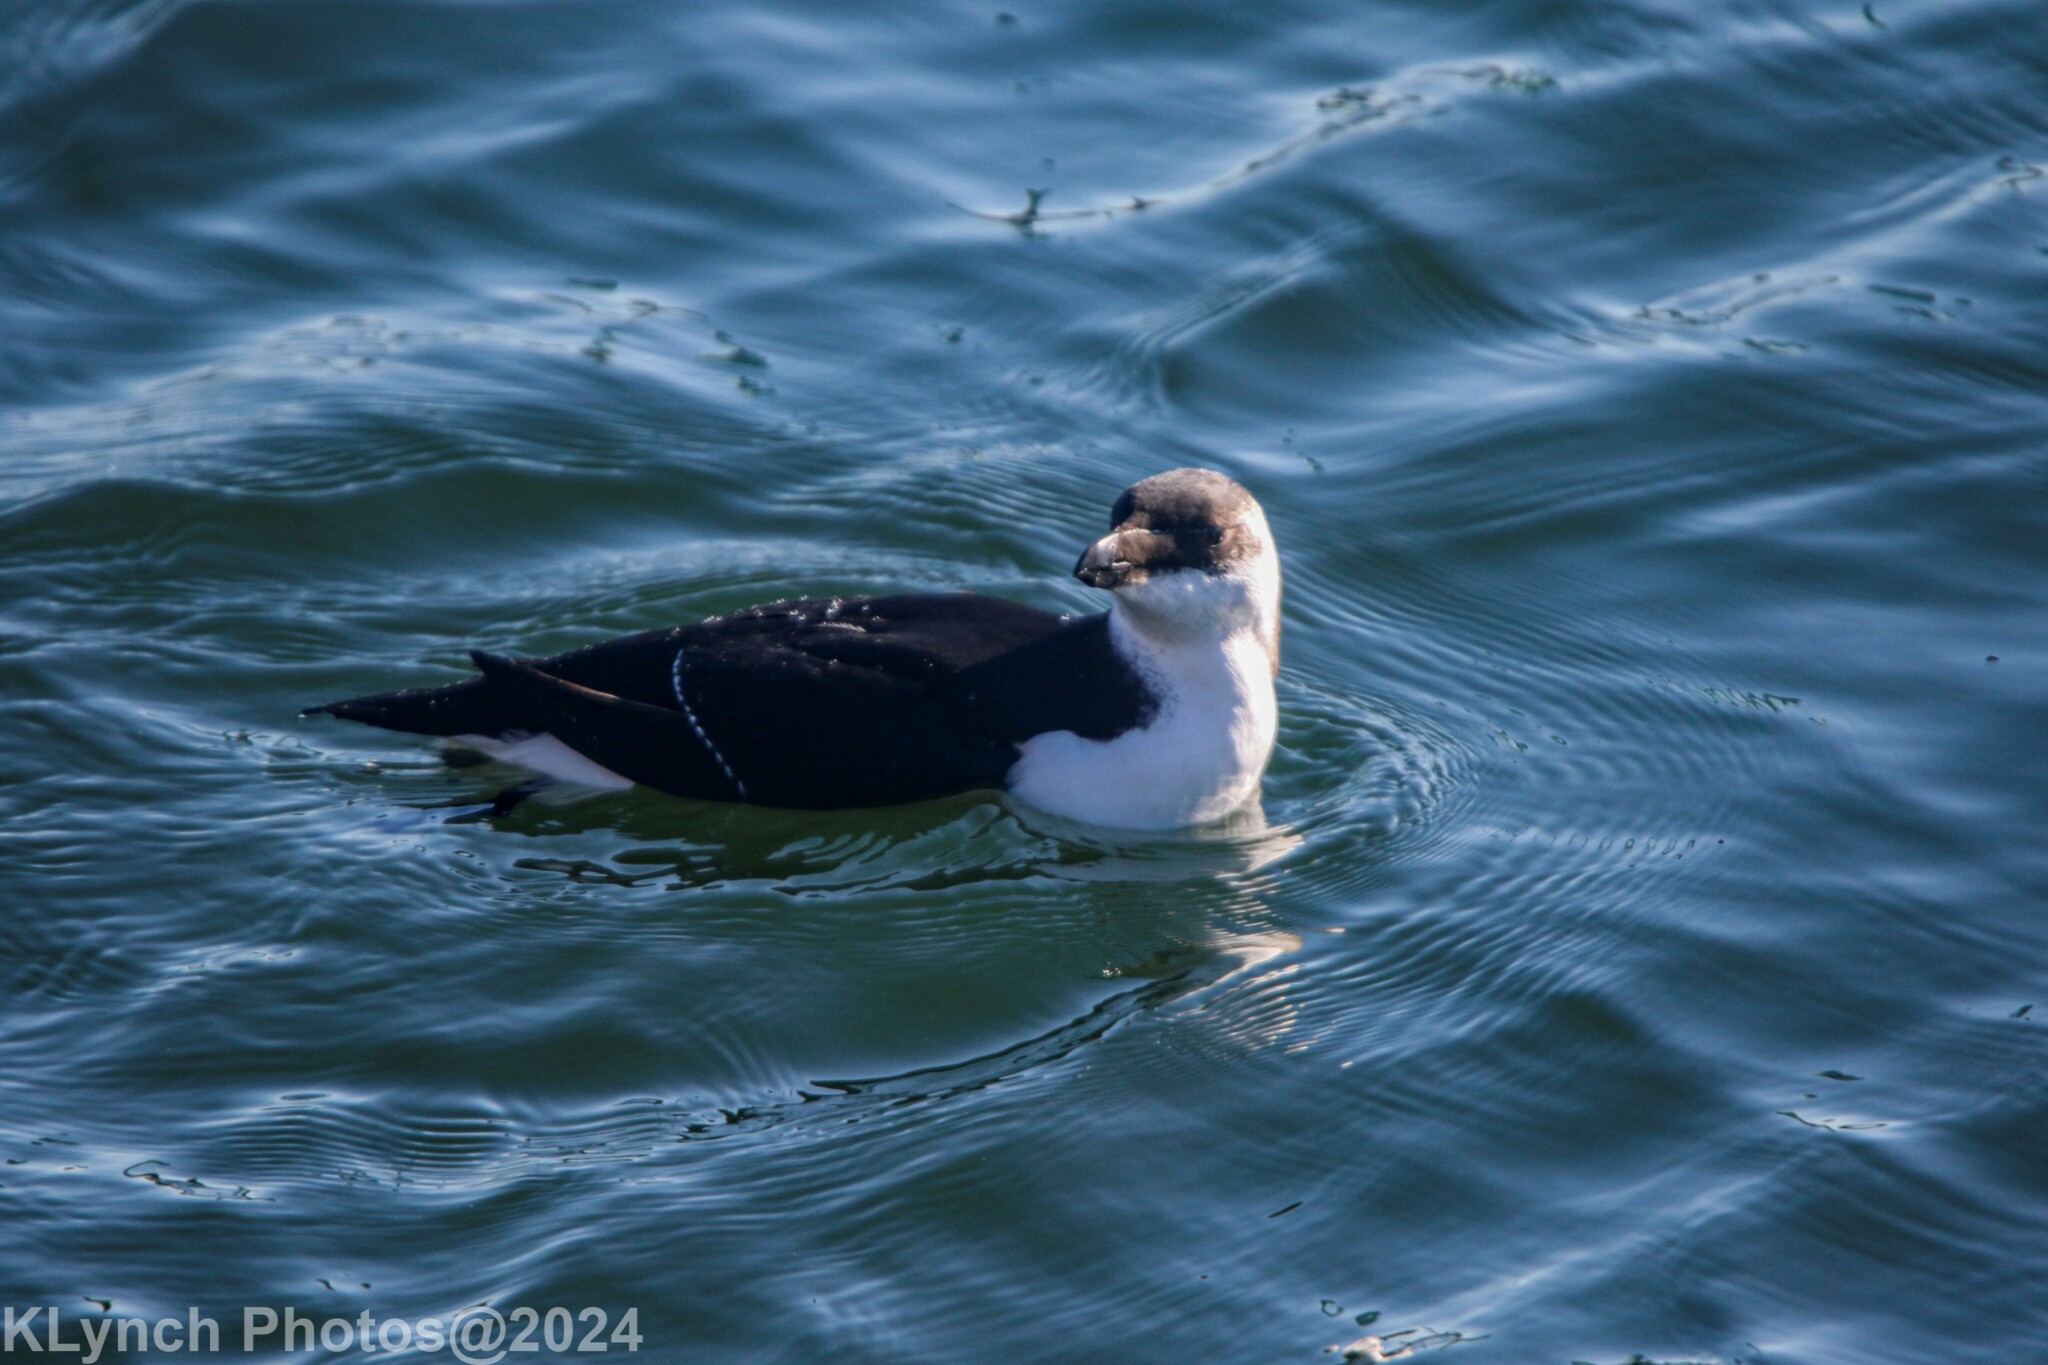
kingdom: Animalia
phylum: Chordata
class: Aves
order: Charadriiformes
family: Alcidae
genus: Alca
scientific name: Alca torda
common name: Razorbill
